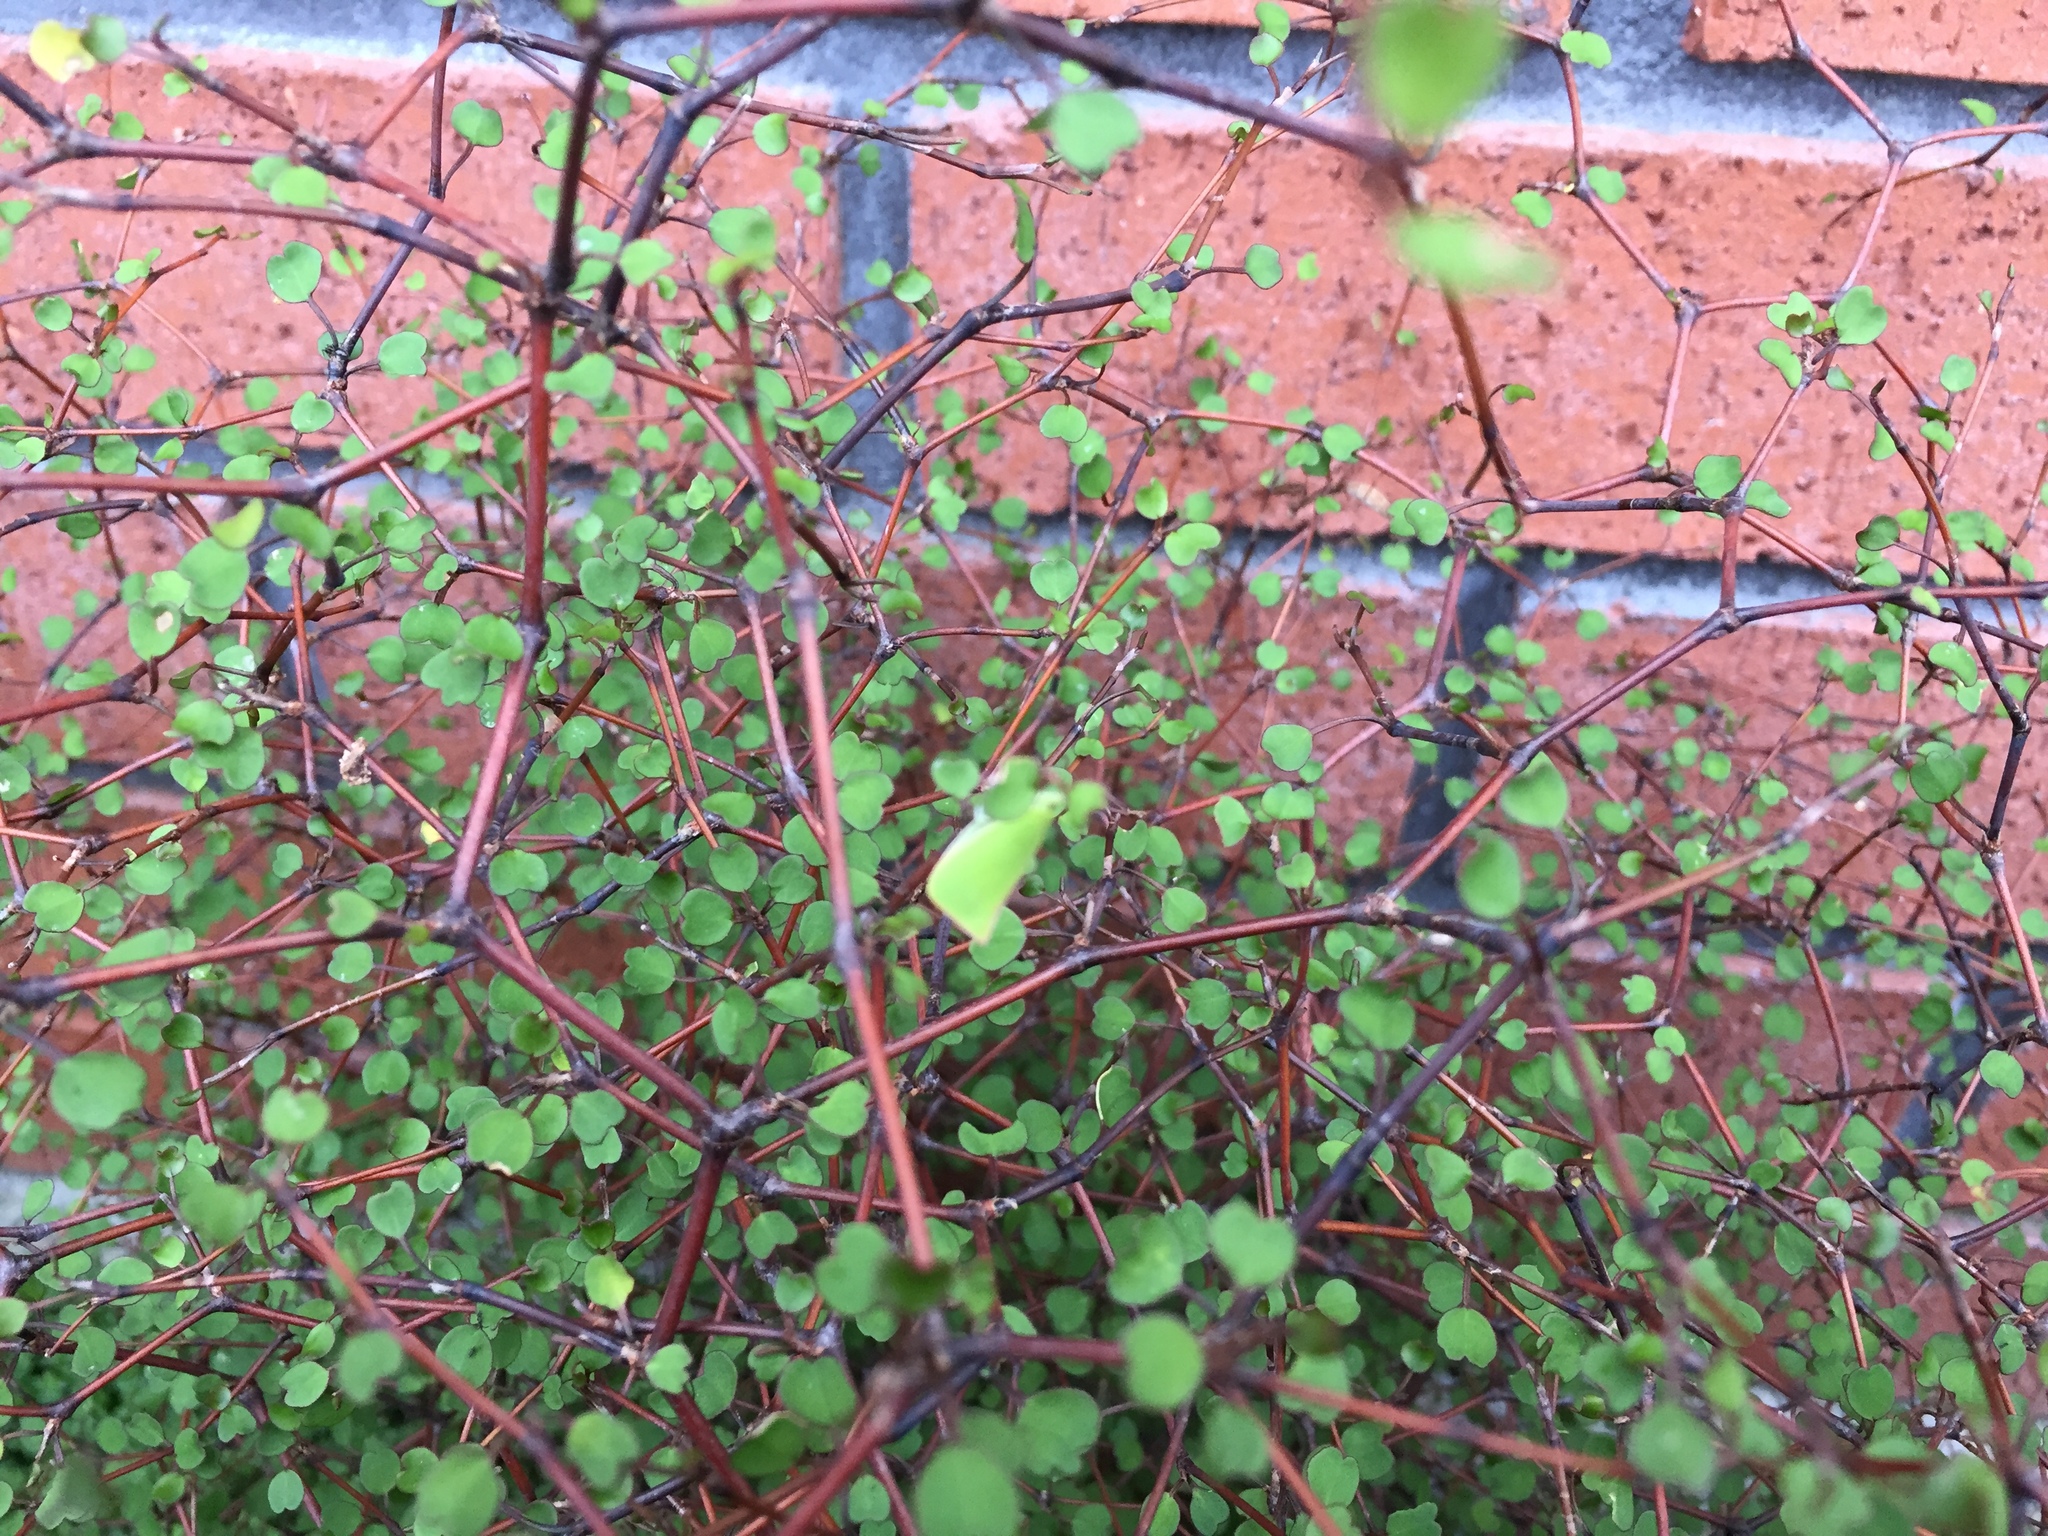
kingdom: Animalia
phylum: Arthropoda
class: Insecta
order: Hemiptera
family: Flatidae
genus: Siphanta
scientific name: Siphanta acuta
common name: Torpedo bug
